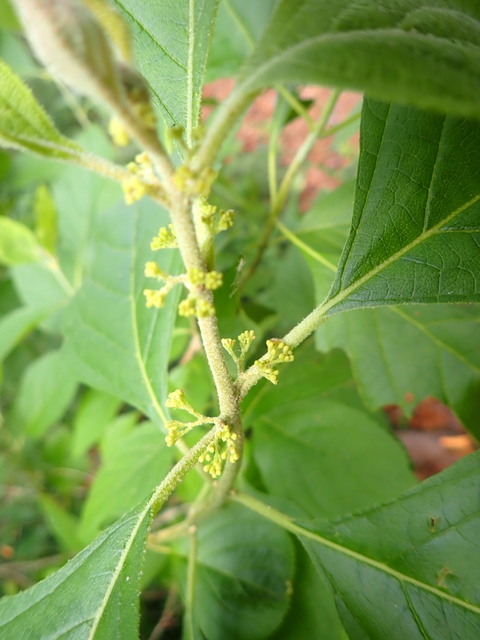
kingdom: Plantae
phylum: Tracheophyta
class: Magnoliopsida
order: Lamiales
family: Lamiaceae
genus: Callicarpa
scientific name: Callicarpa americana
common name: American beautyberry
